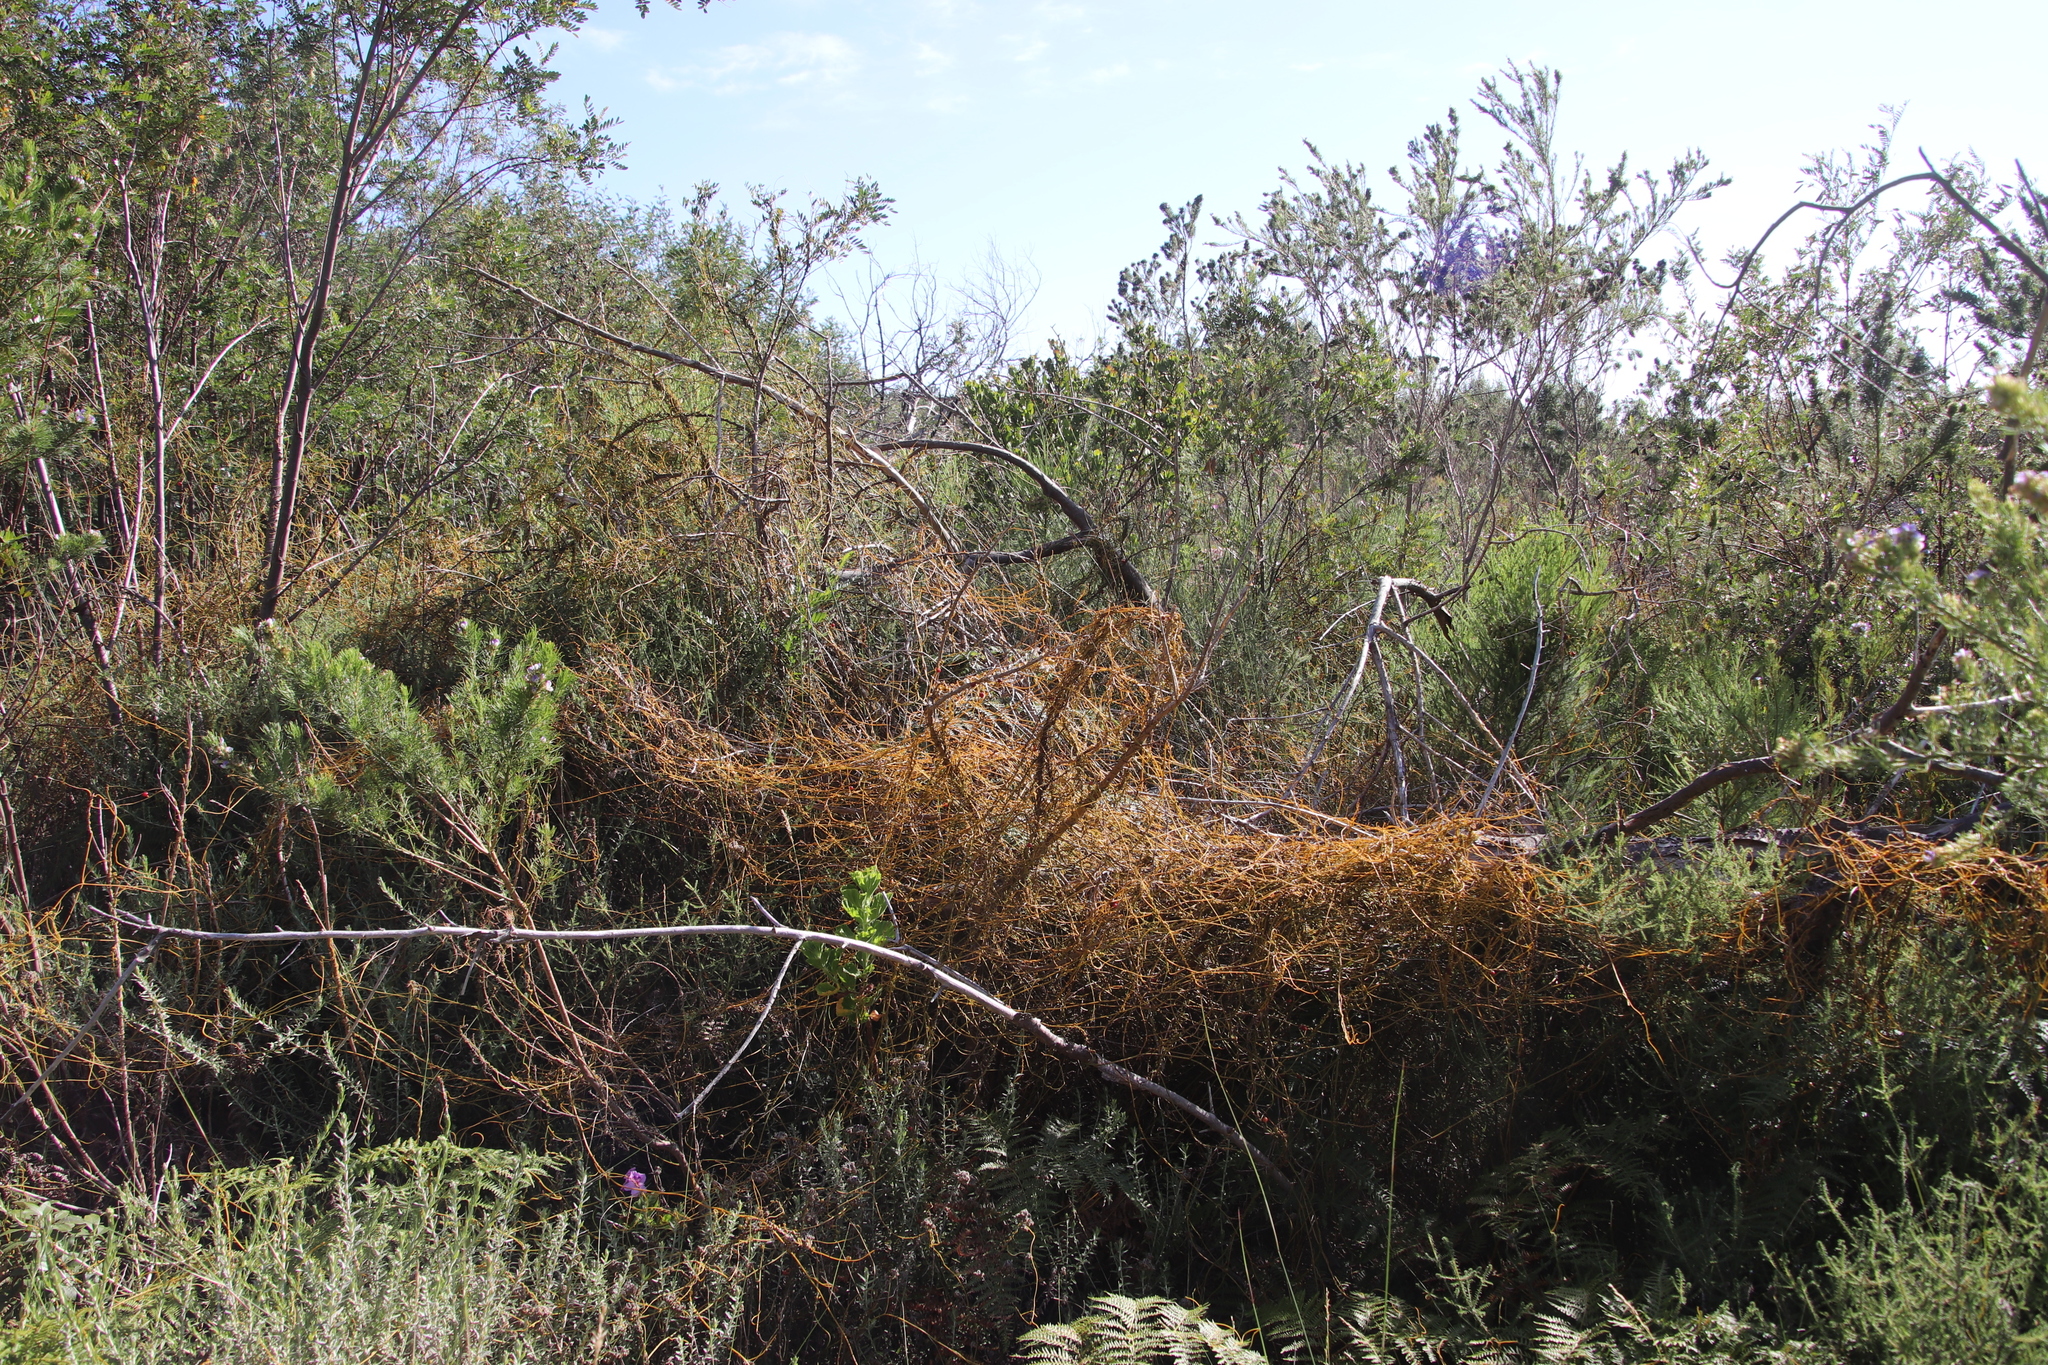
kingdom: Plantae
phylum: Tracheophyta
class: Magnoliopsida
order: Laurales
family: Lauraceae
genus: Cassytha
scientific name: Cassytha ciliolata
